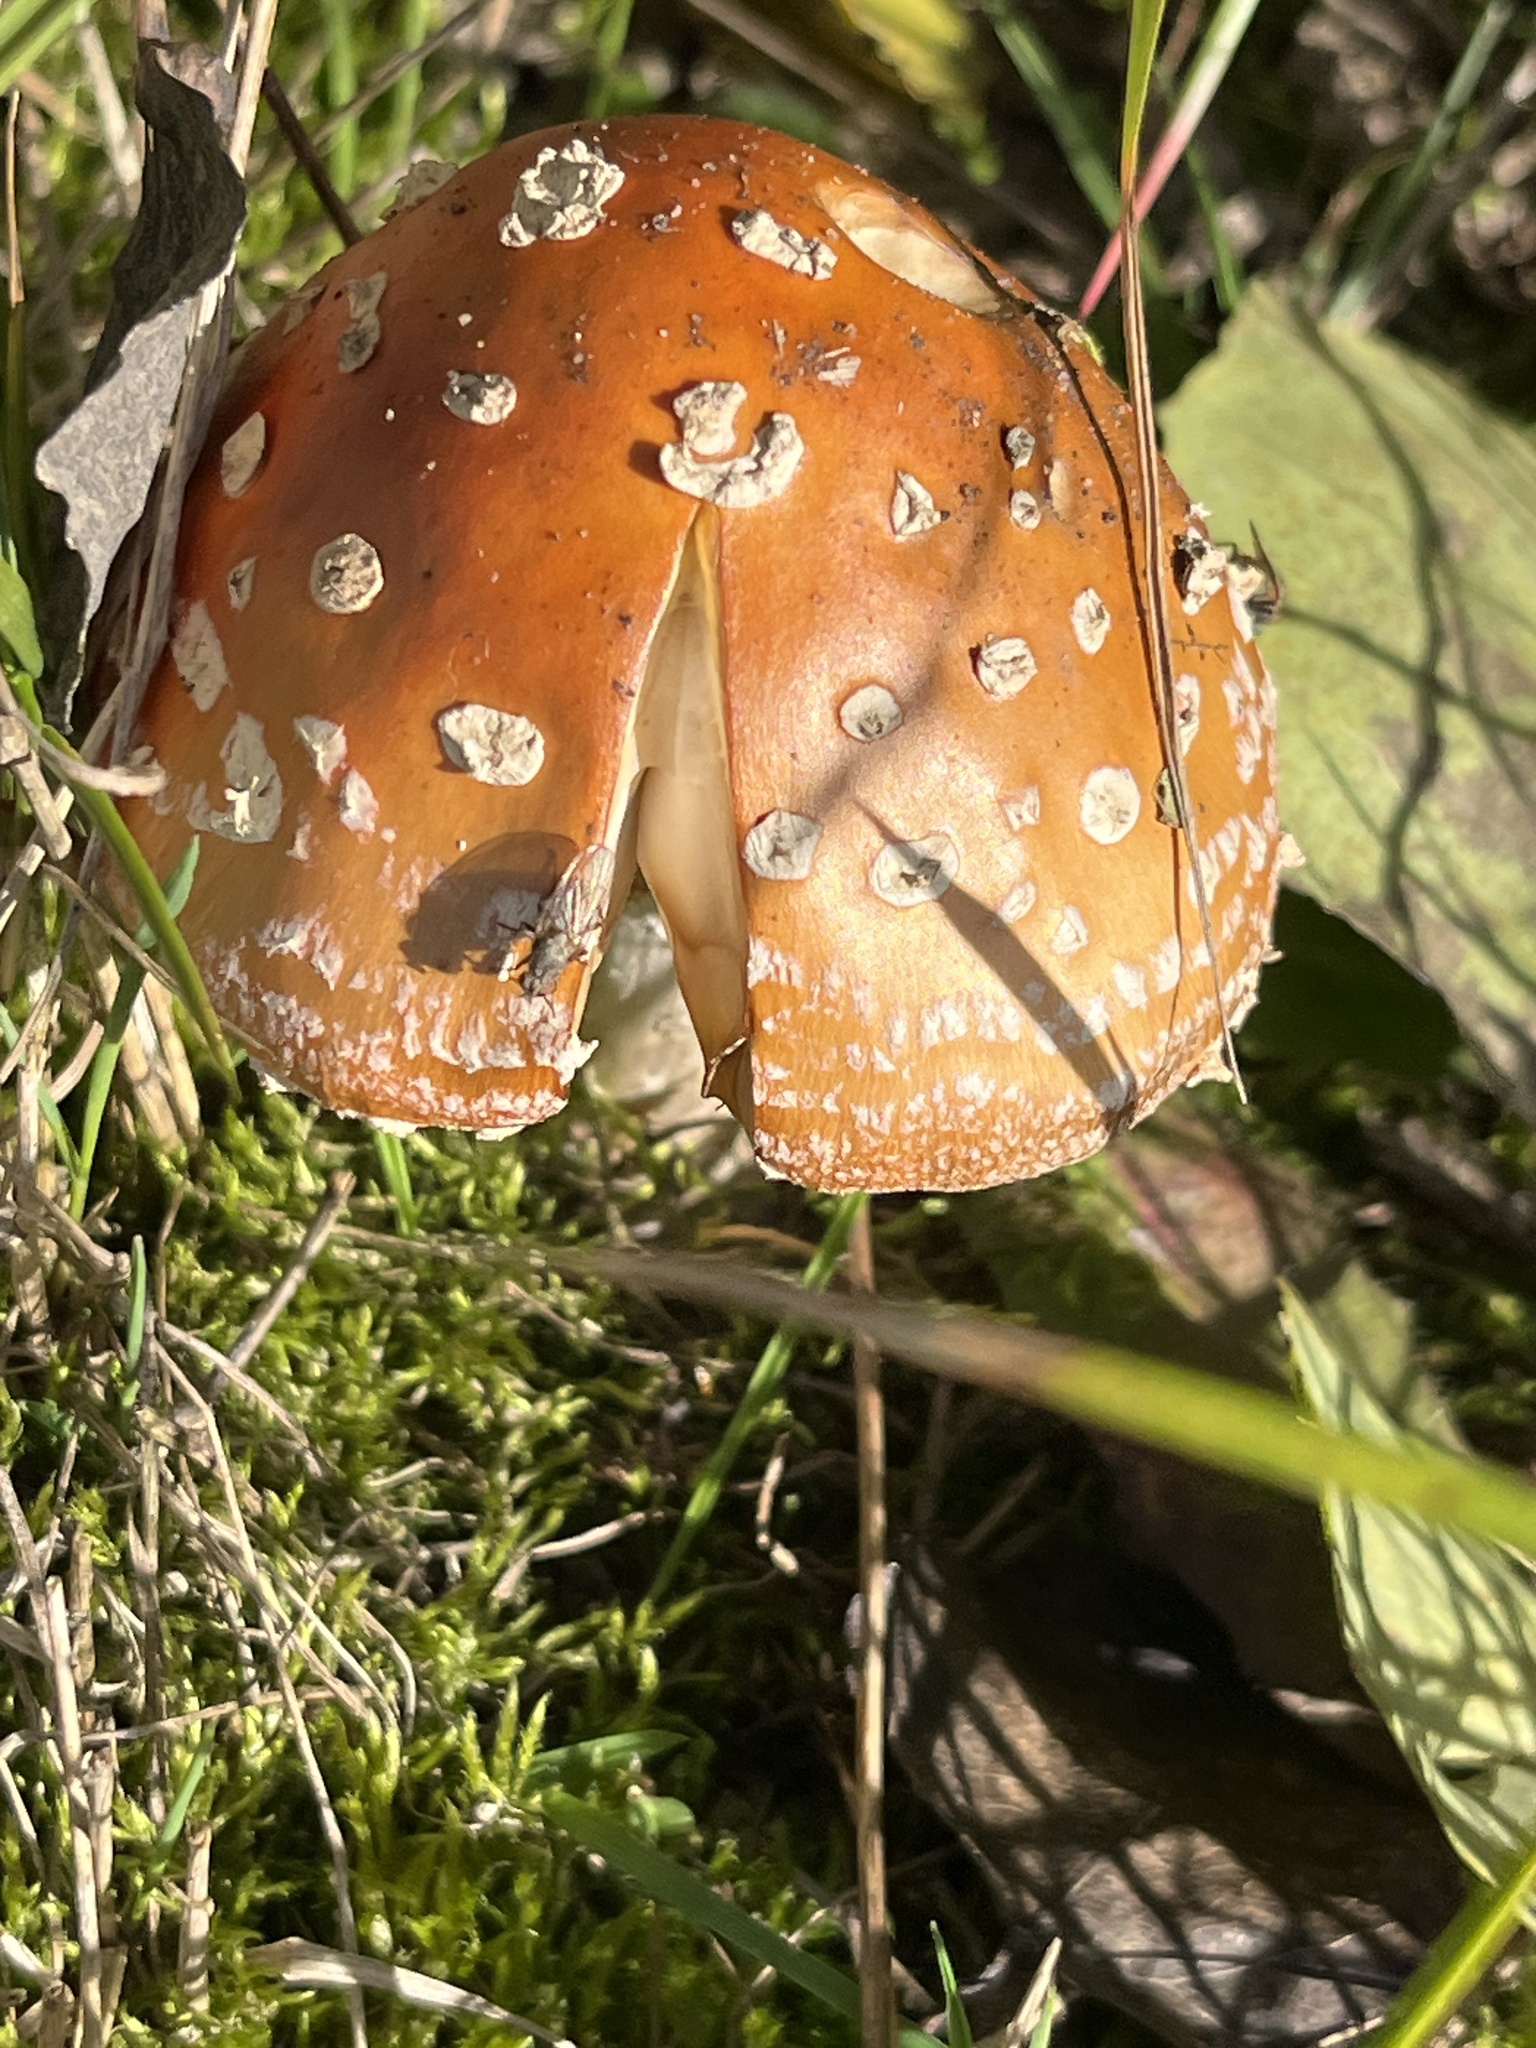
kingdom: Fungi
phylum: Basidiomycota
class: Agaricomycetes
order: Agaricales
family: Amanitaceae
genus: Amanita
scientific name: Amanita muscaria
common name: Fly agaric
